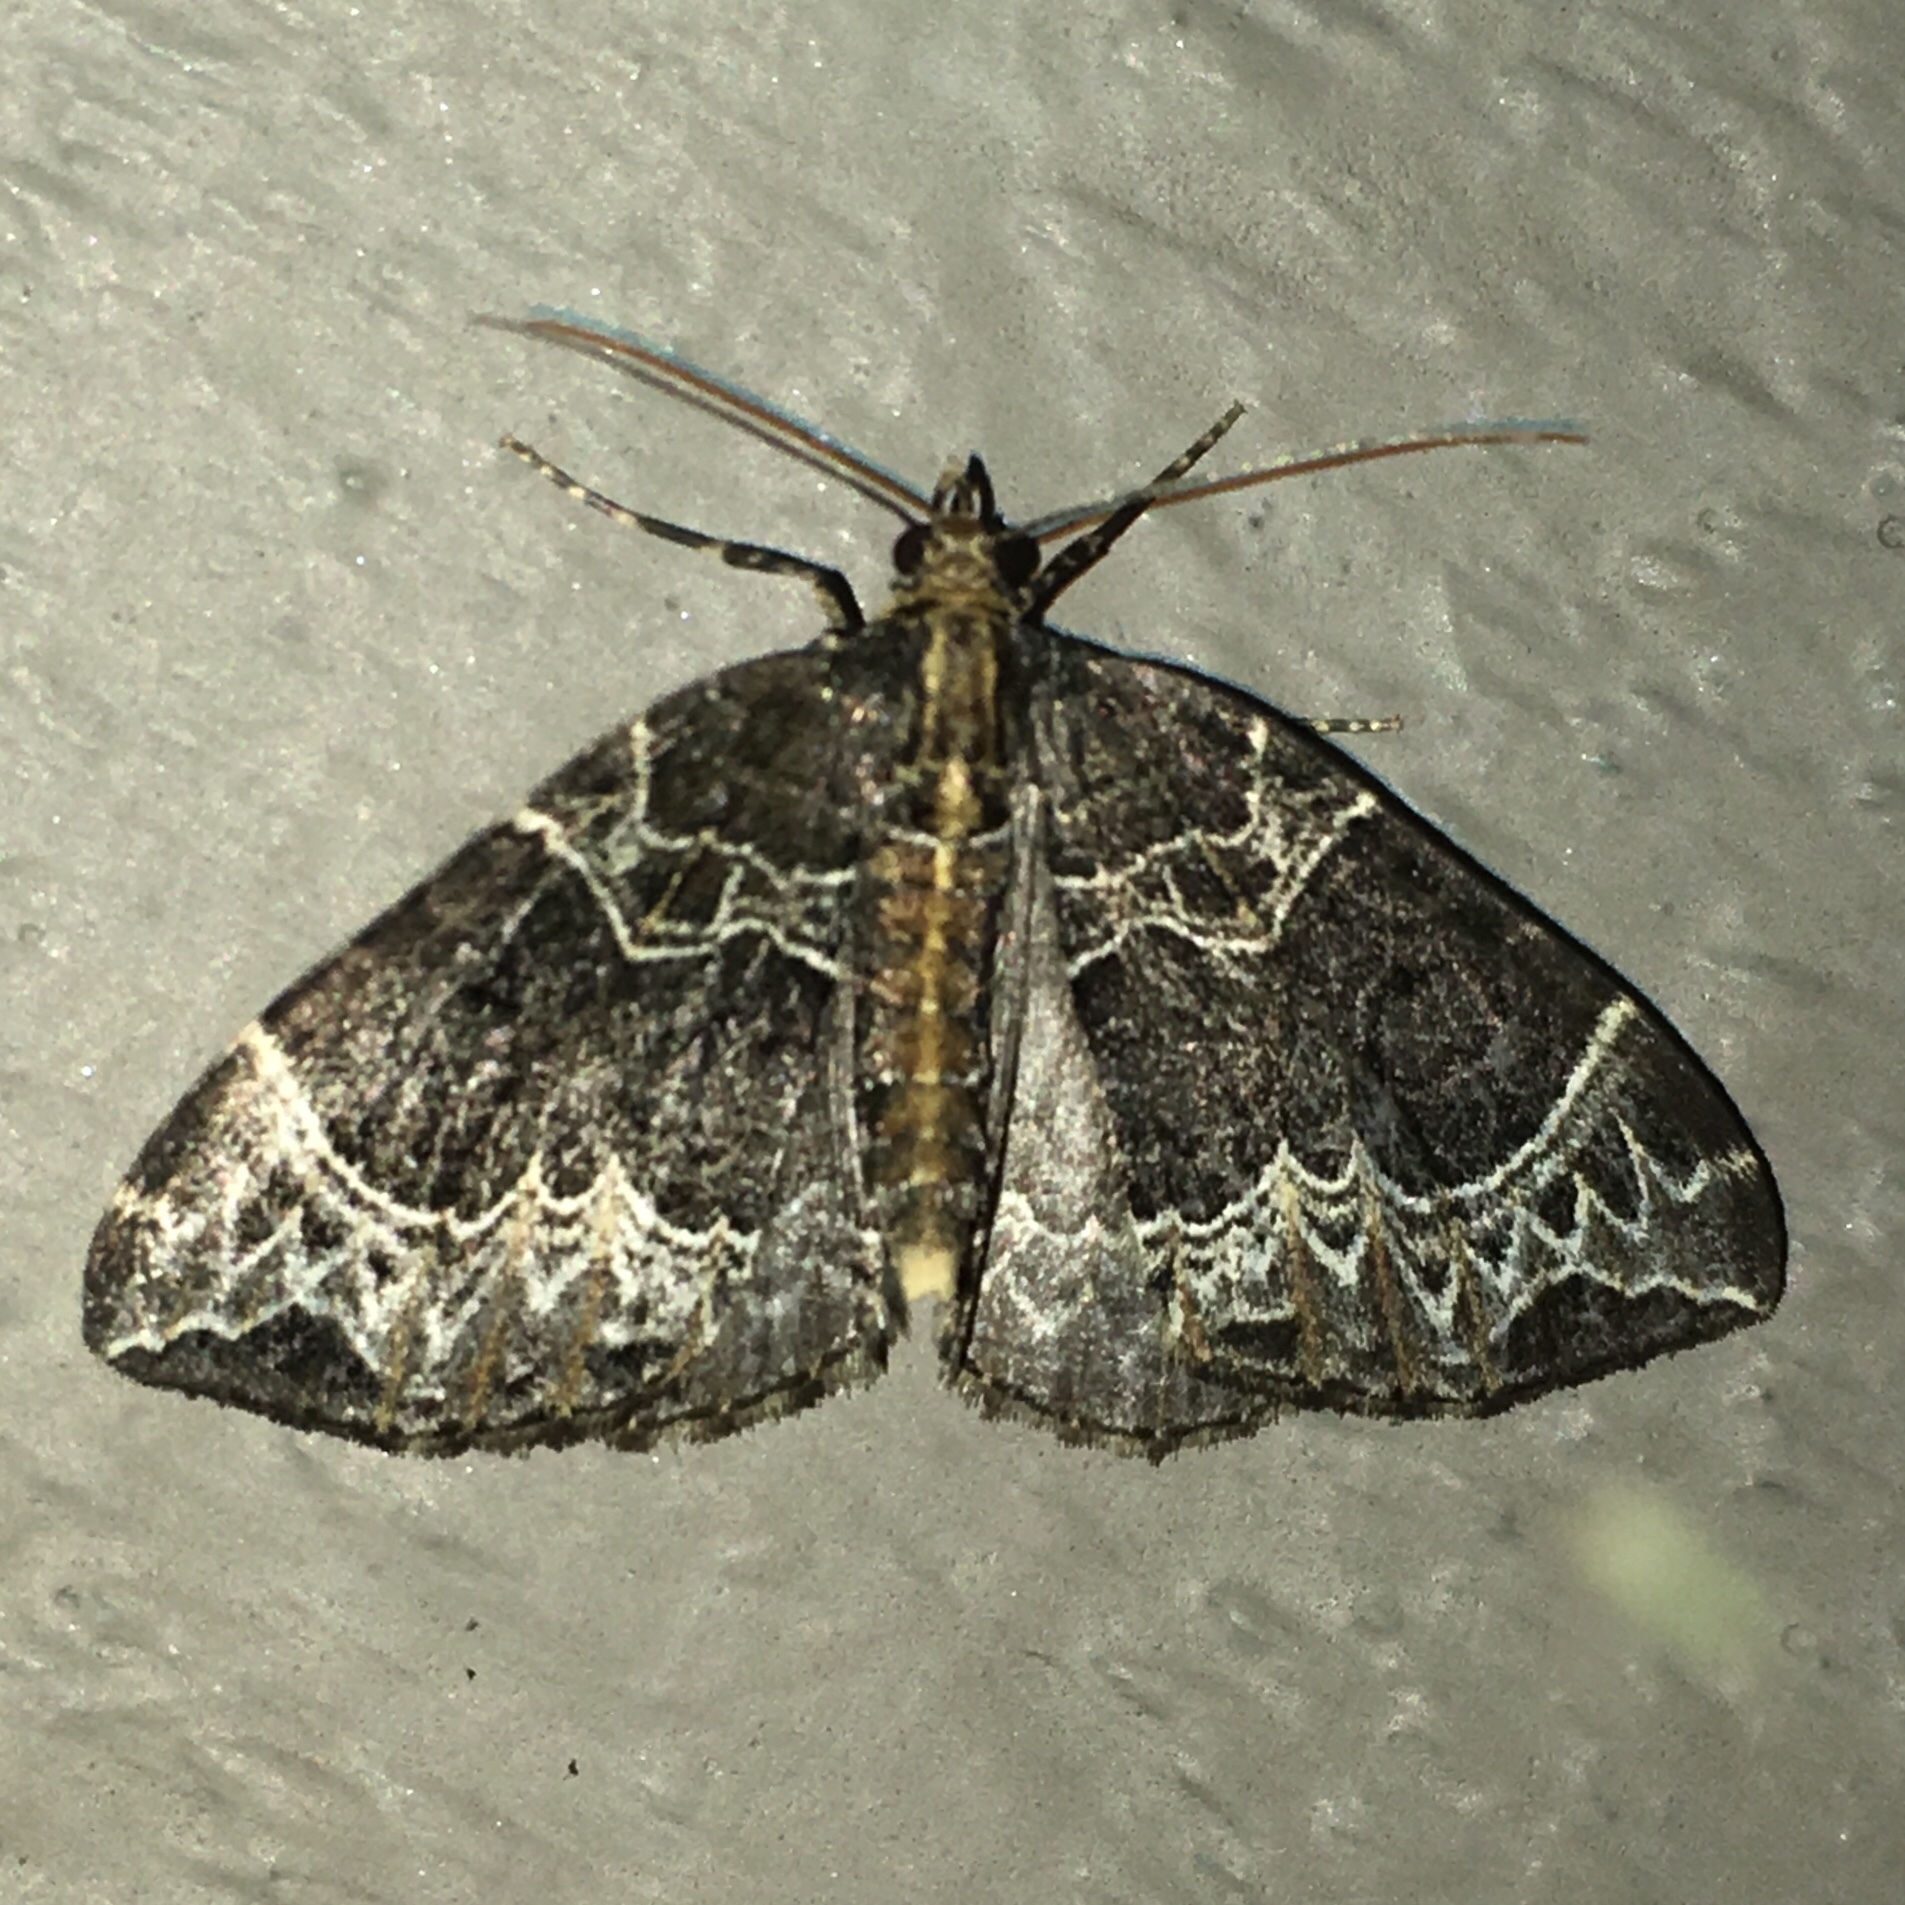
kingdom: Animalia
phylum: Arthropoda
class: Insecta
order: Lepidoptera
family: Geometridae
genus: Ecliptopera
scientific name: Ecliptopera silaceata
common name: Small phoenix
